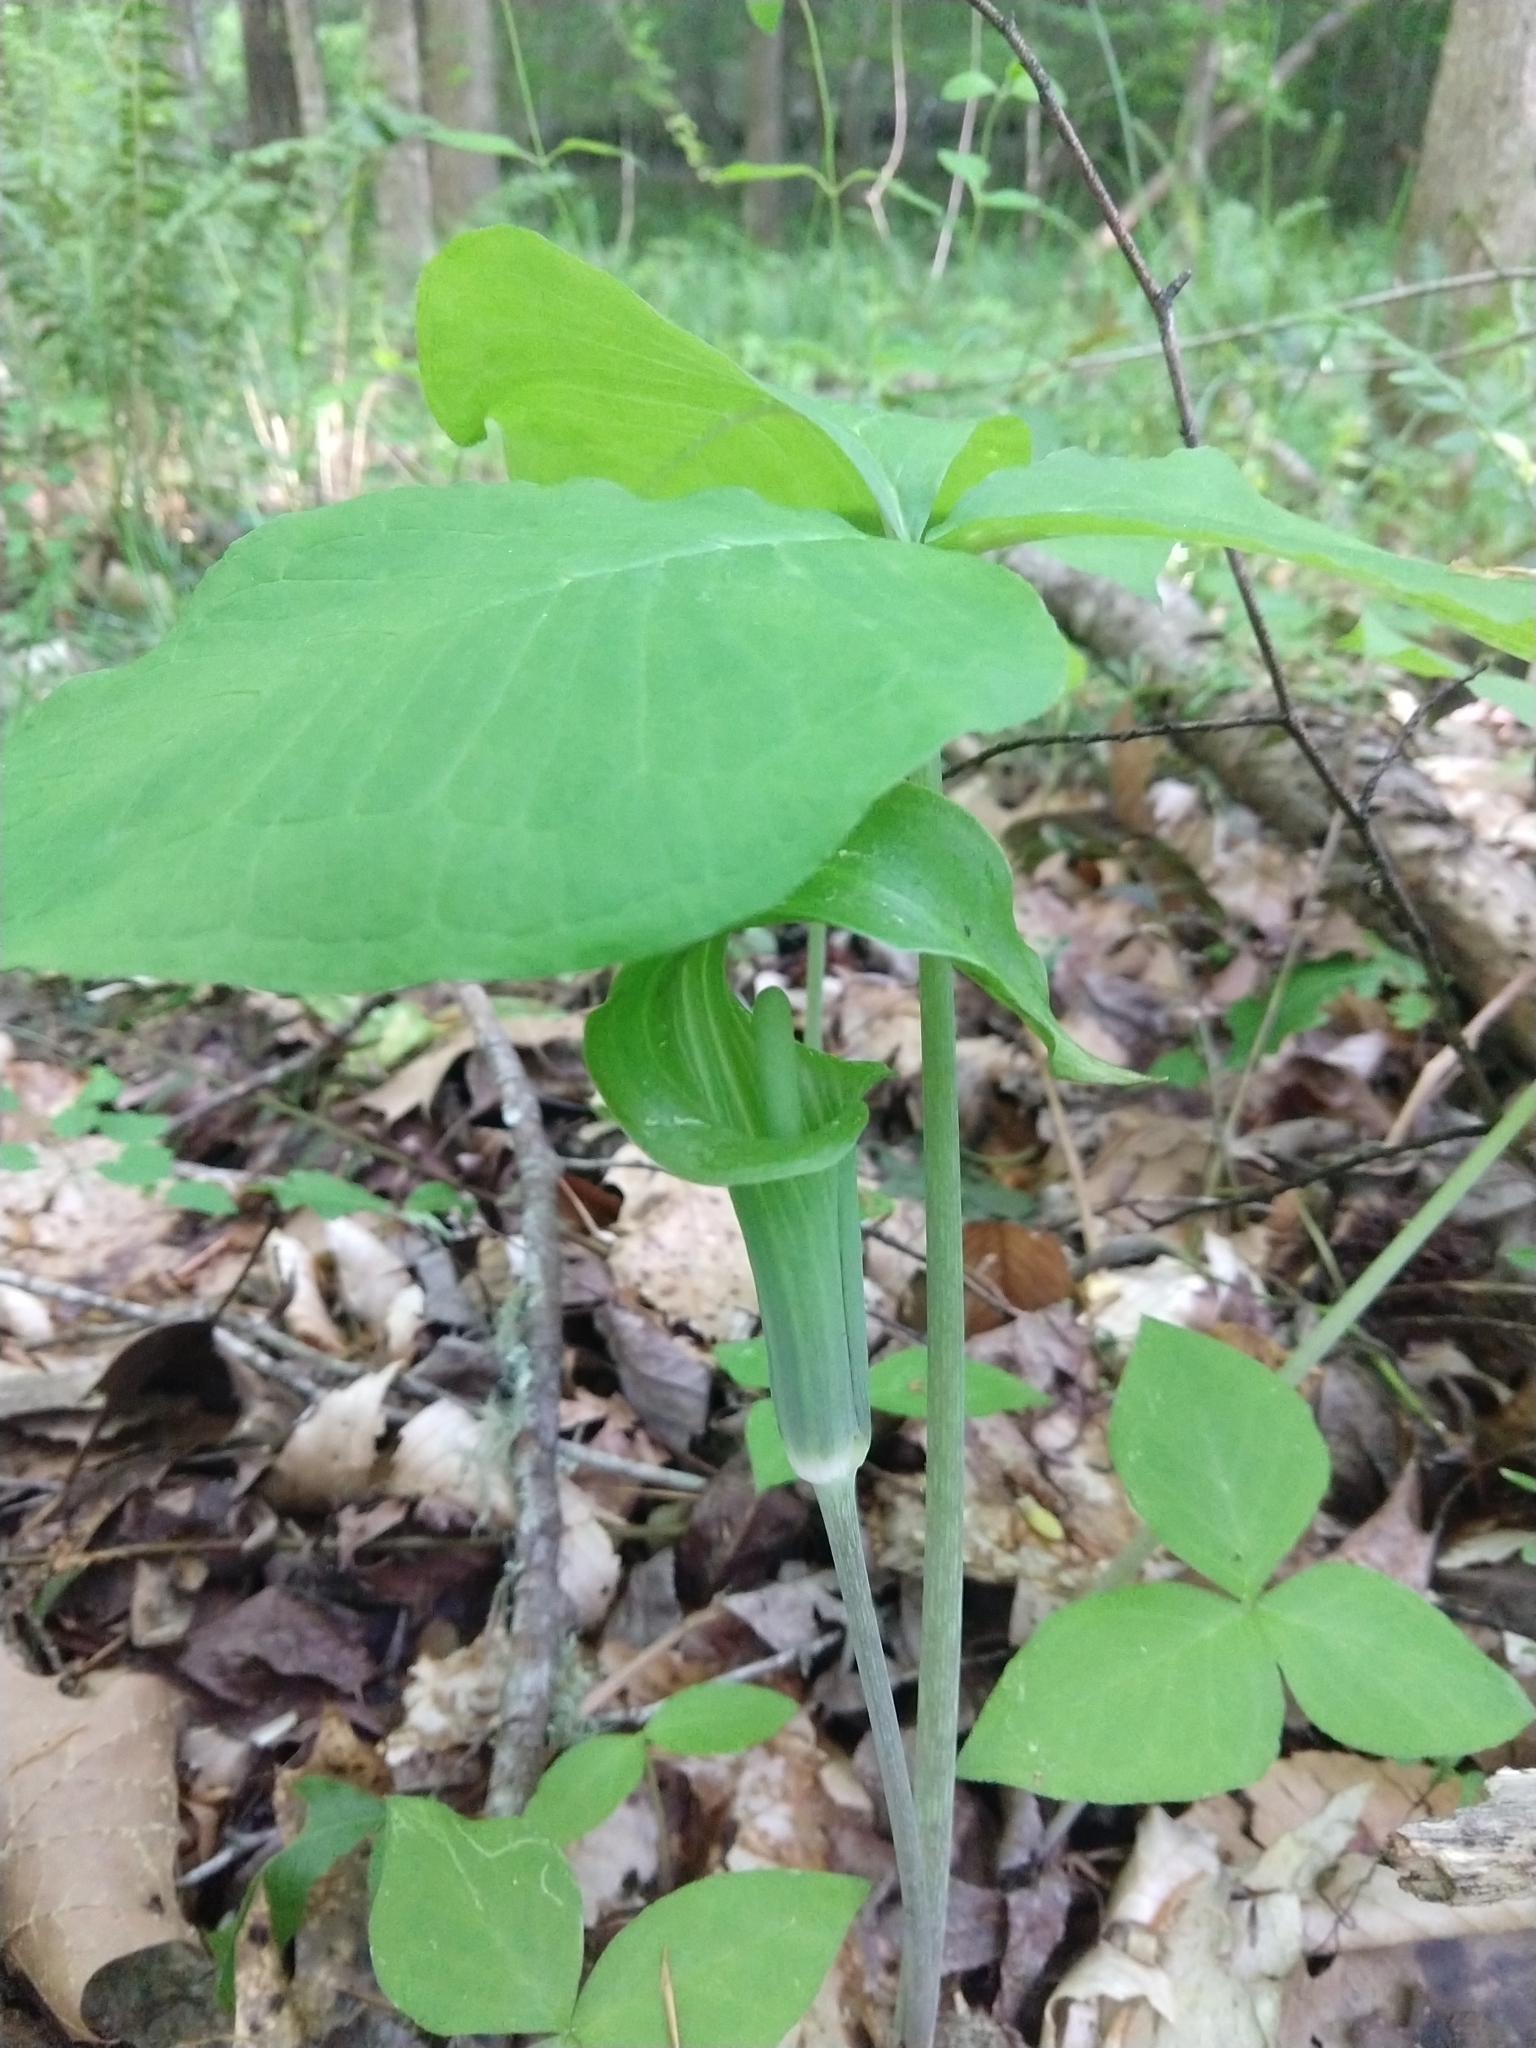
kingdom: Plantae
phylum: Tracheophyta
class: Liliopsida
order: Alismatales
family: Araceae
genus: Arisaema
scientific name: Arisaema triphyllum
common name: Jack-in-the-pulpit
